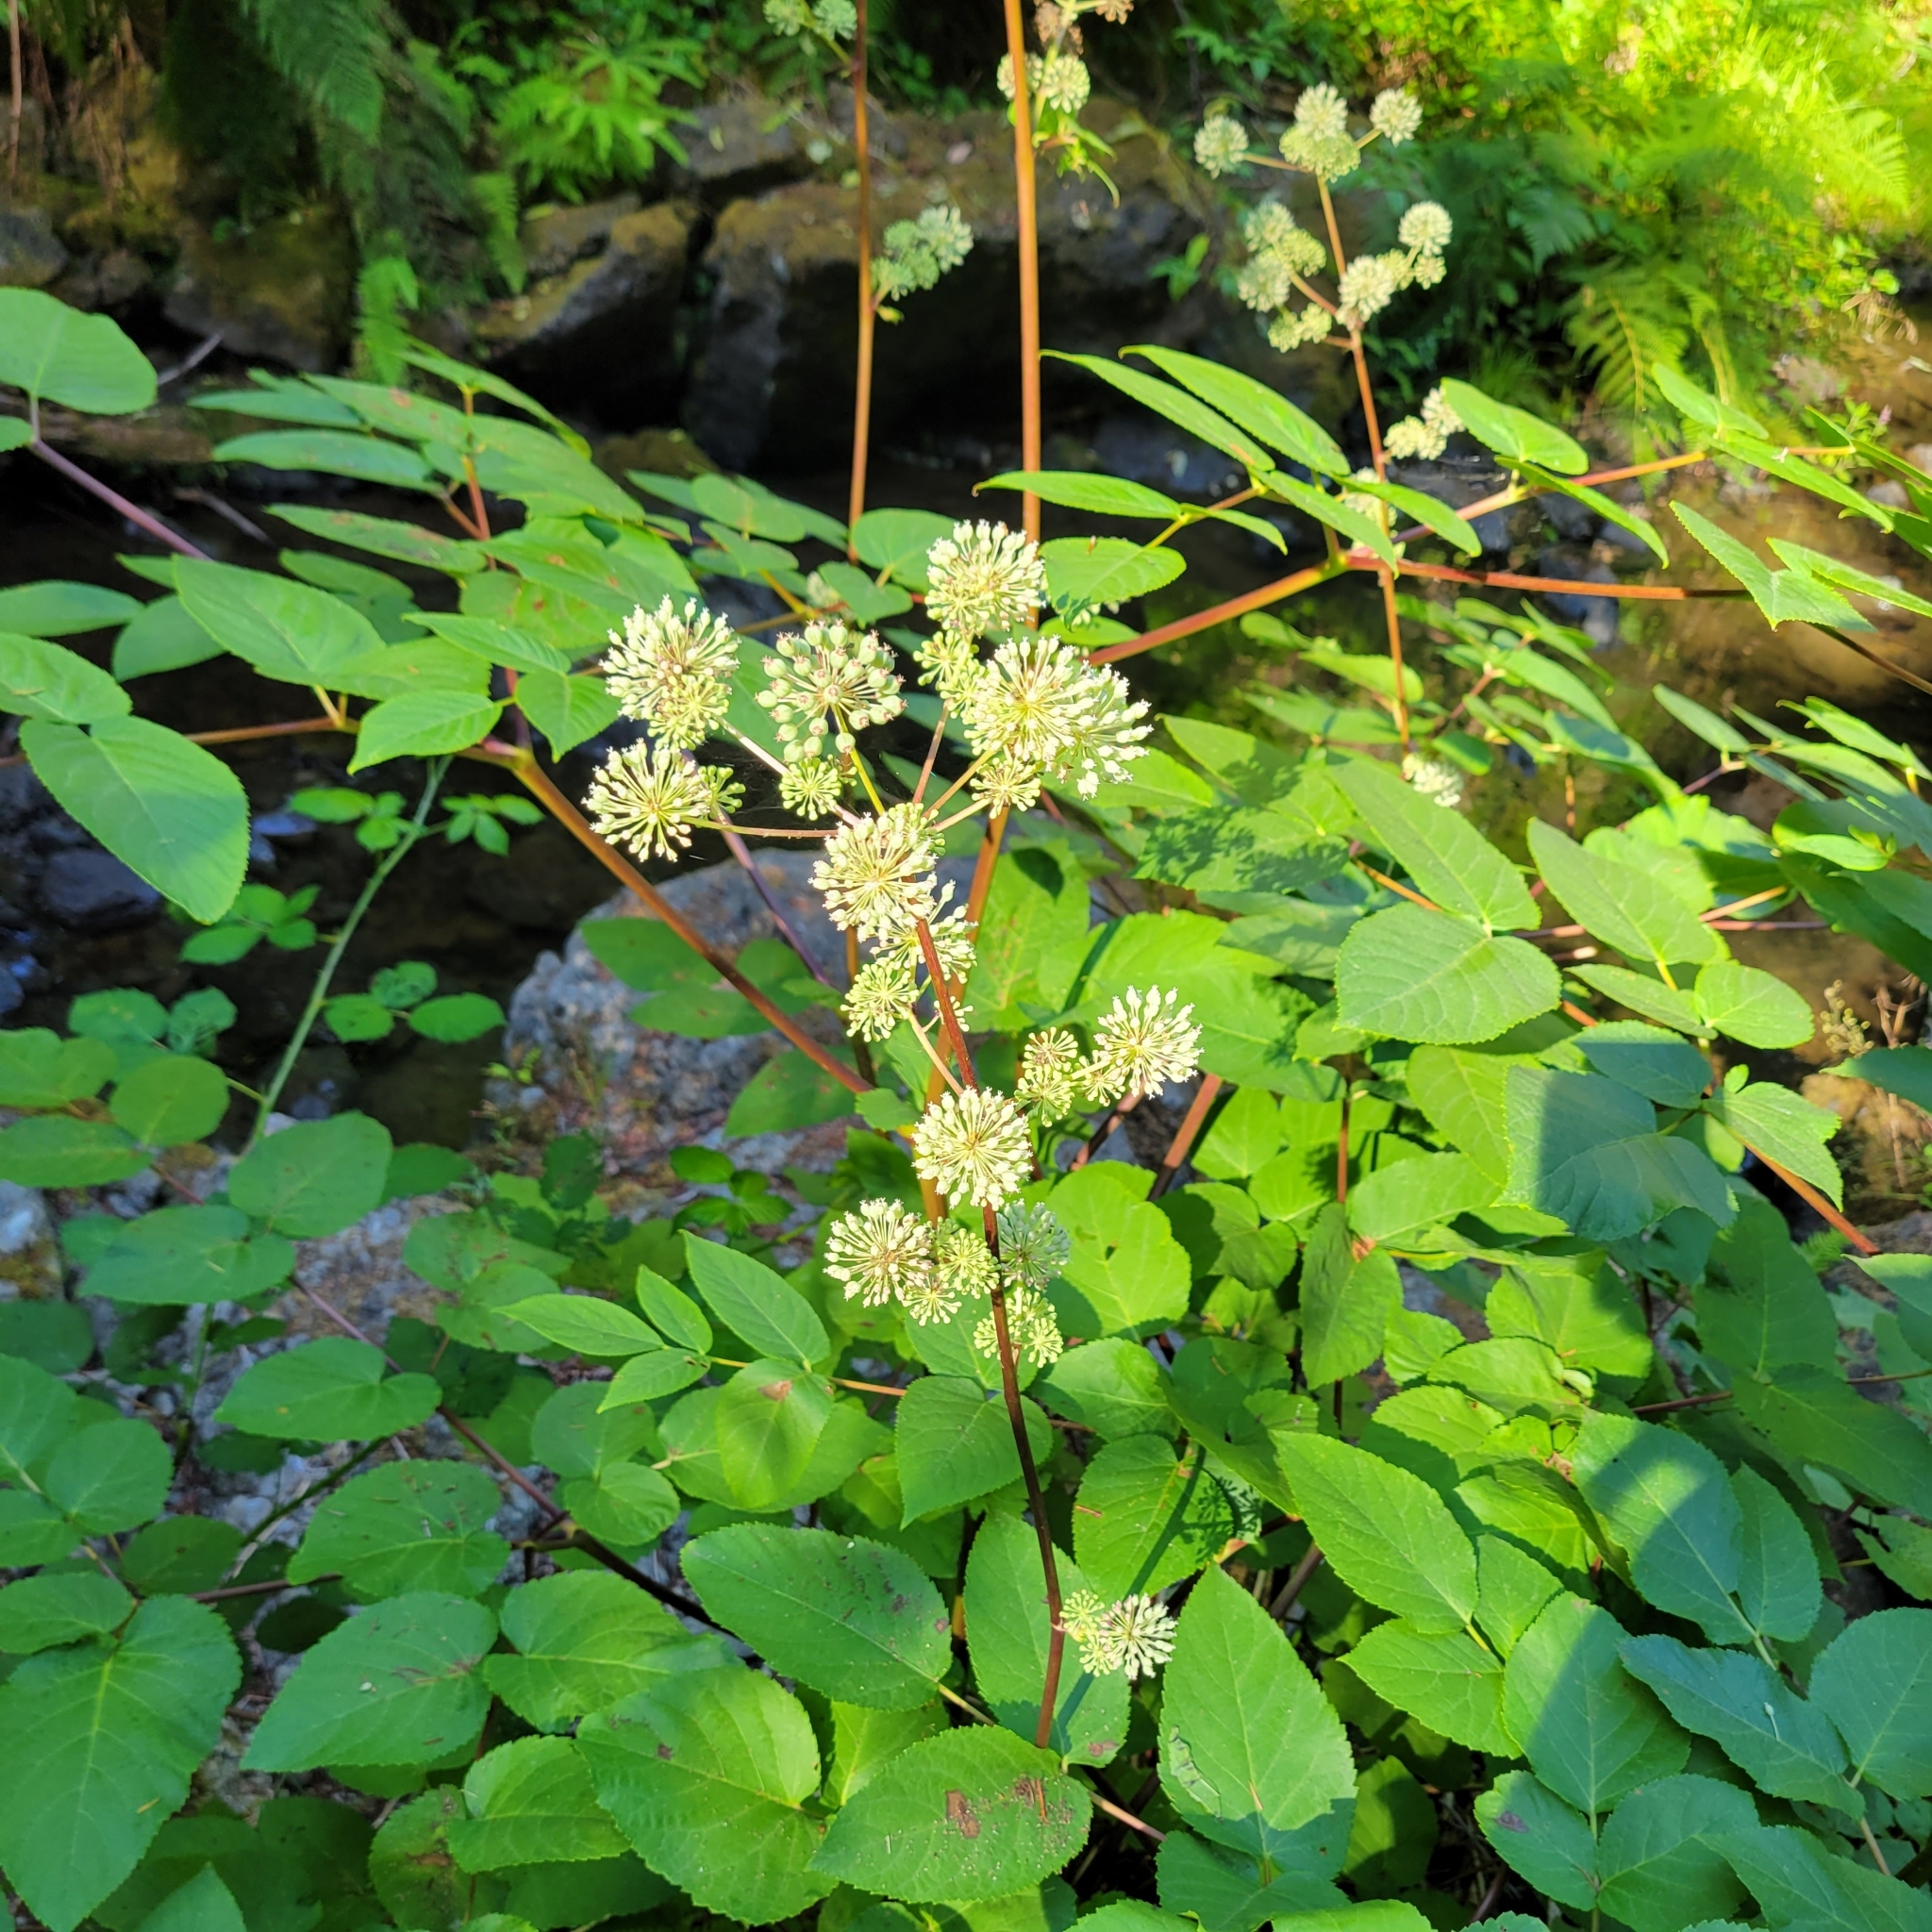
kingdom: Plantae
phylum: Tracheophyta
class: Magnoliopsida
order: Apiales
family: Araliaceae
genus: Aralia
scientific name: Aralia californica
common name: California-ginseng
